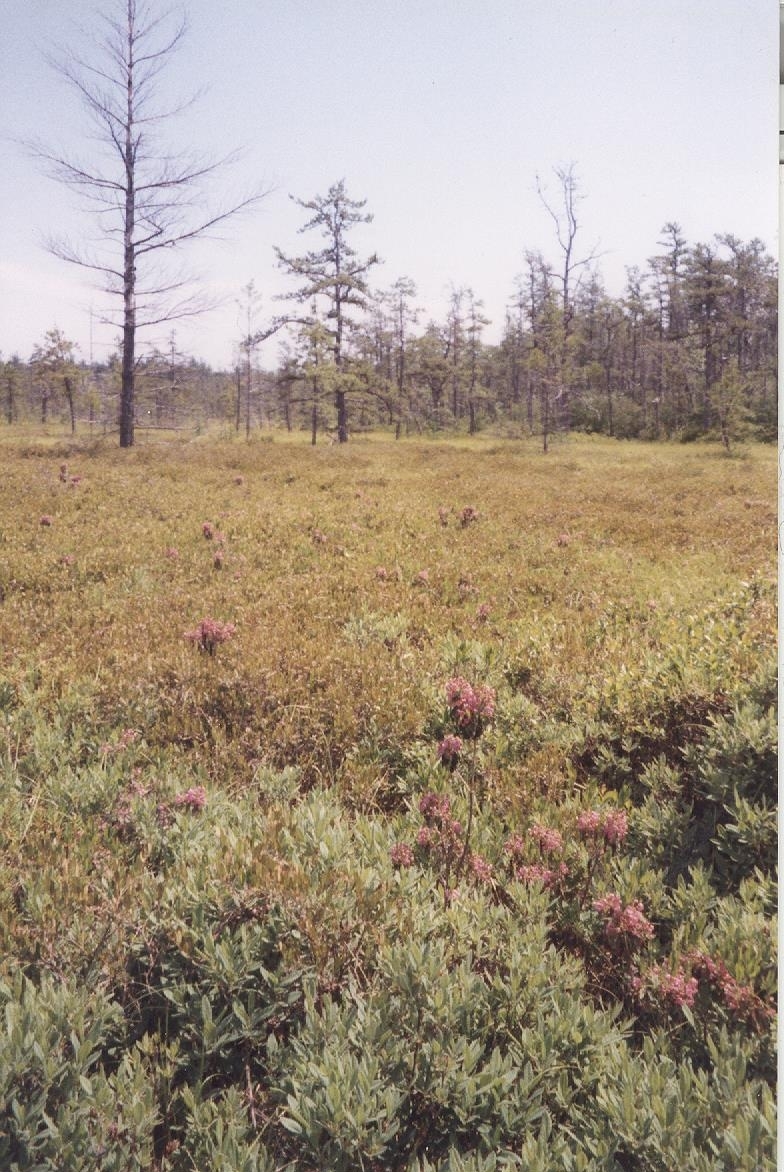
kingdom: Plantae
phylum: Tracheophyta
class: Magnoliopsida
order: Ericales
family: Ericaceae
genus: Kalmia
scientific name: Kalmia angustifolia
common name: Sheep-laurel
